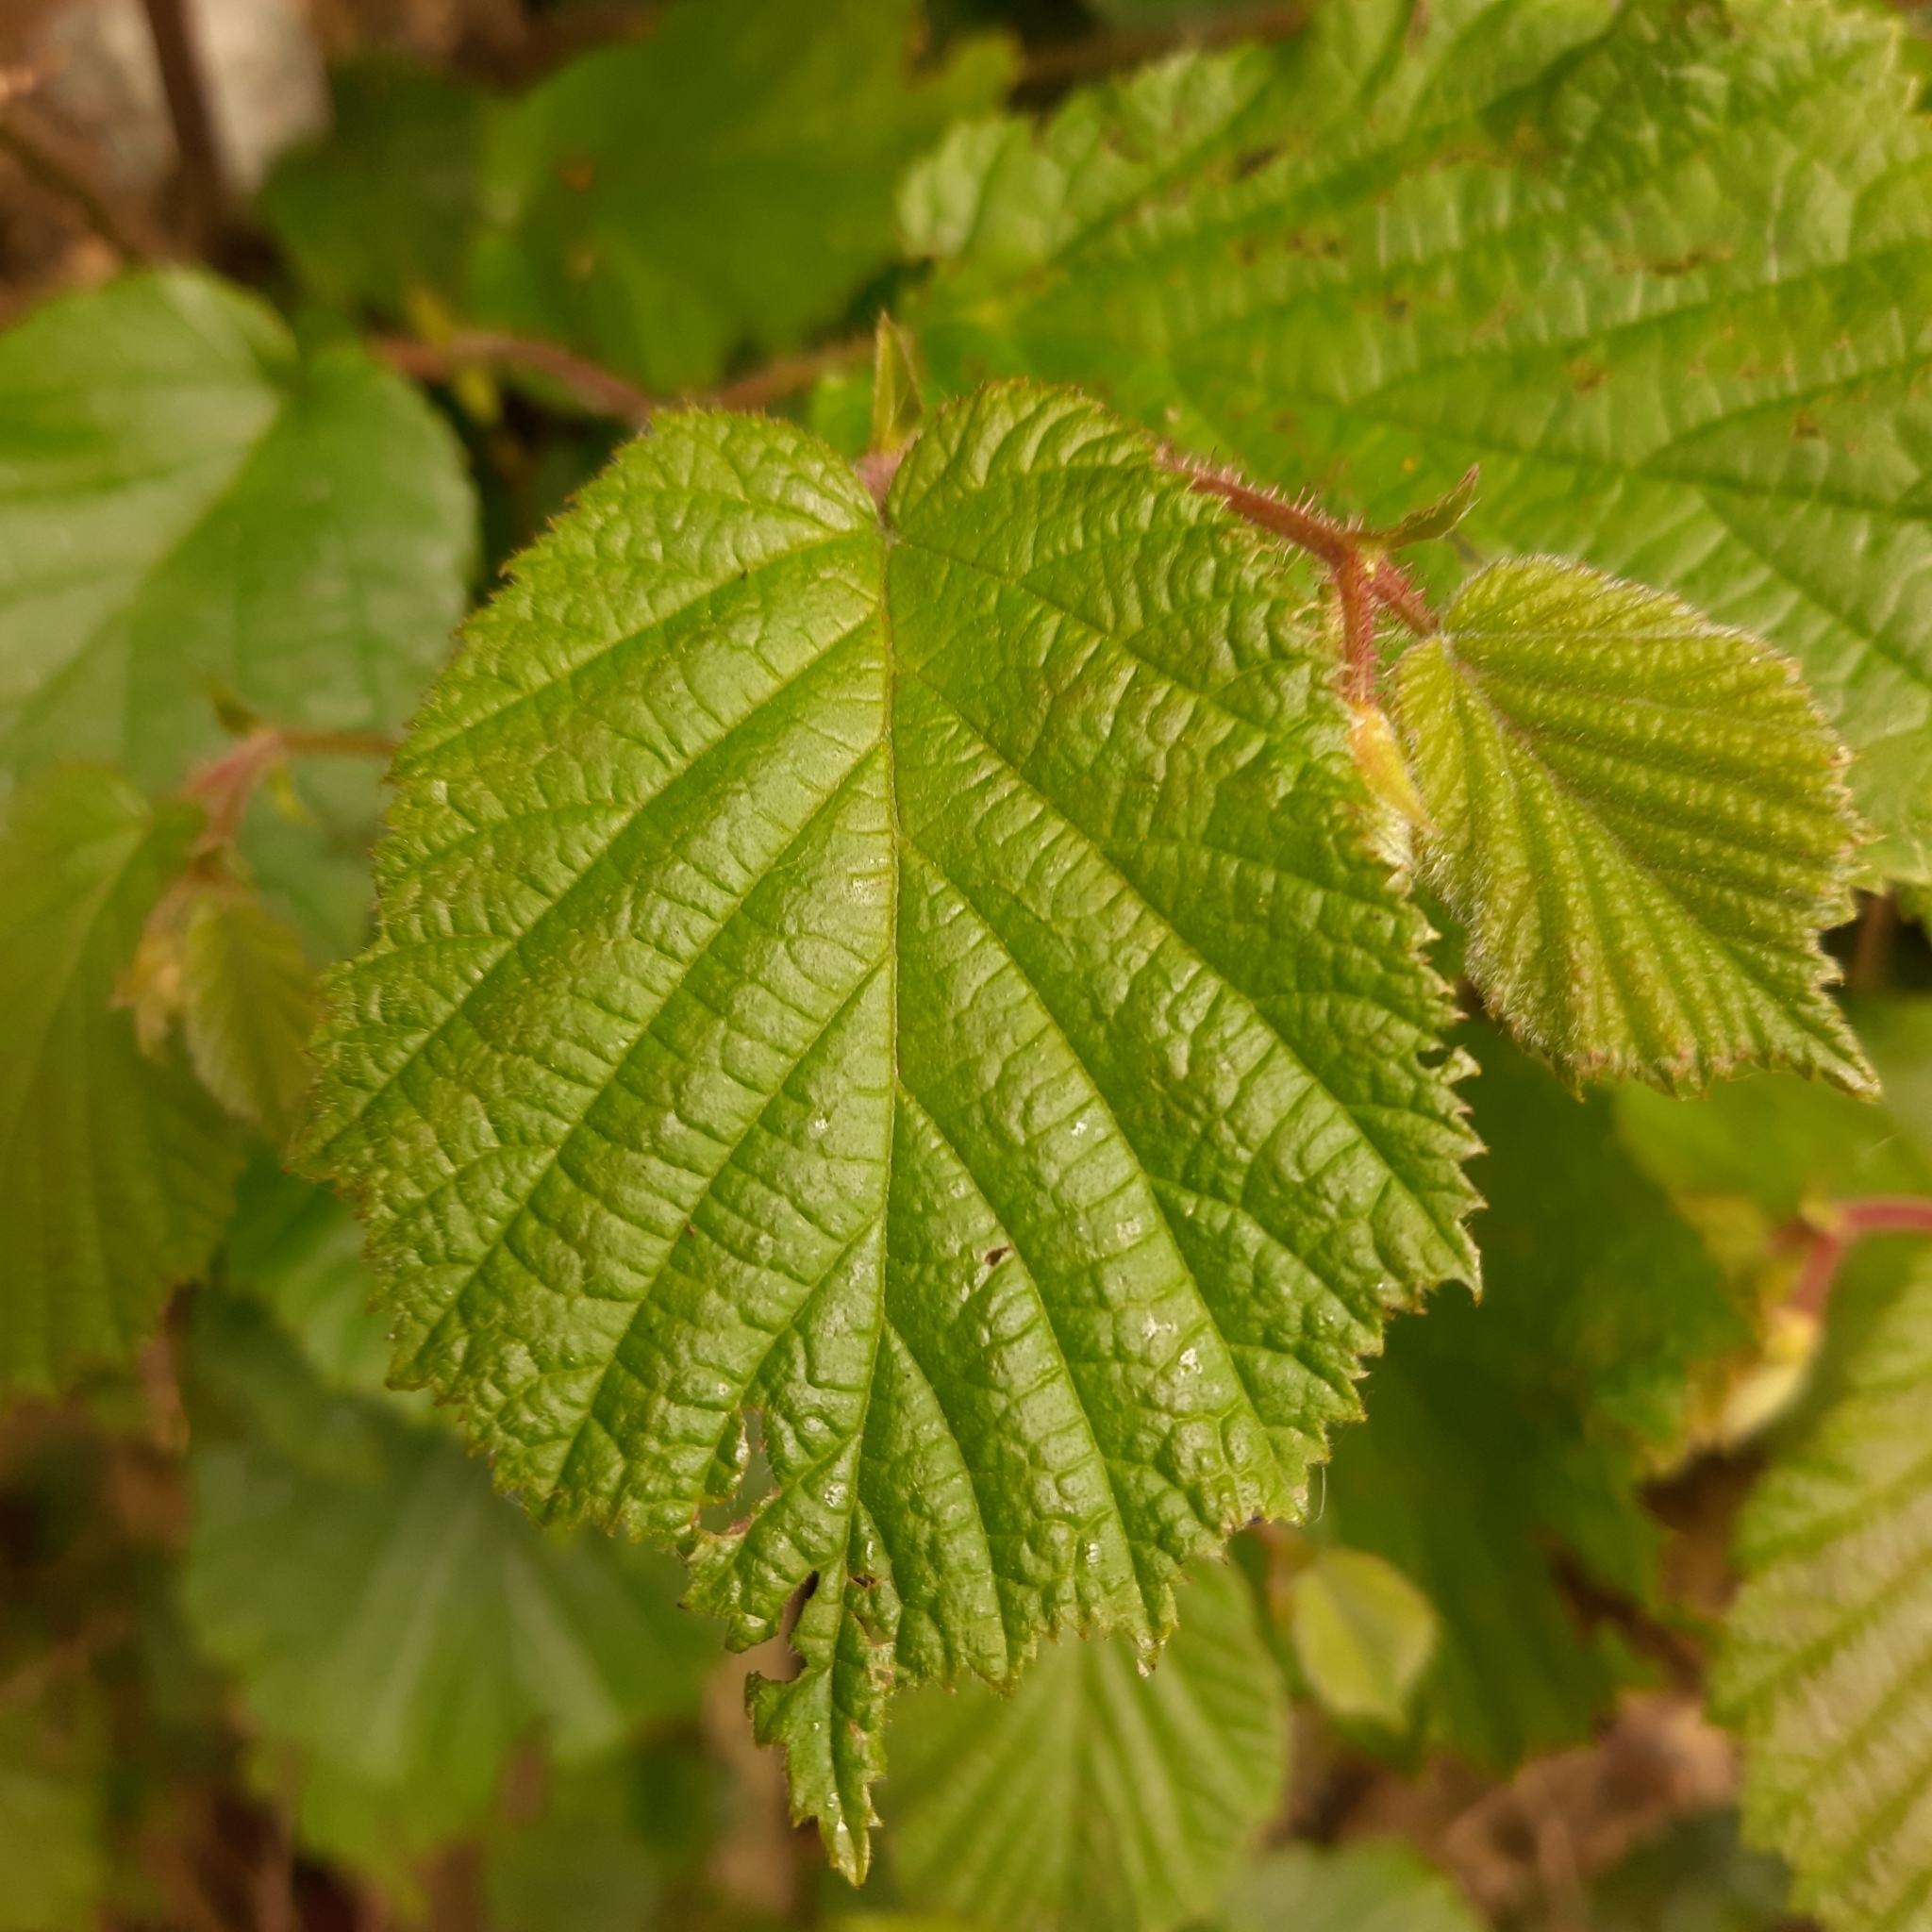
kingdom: Plantae
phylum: Tracheophyta
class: Magnoliopsida
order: Fagales
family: Betulaceae
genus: Corylus
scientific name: Corylus avellana
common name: European hazel
